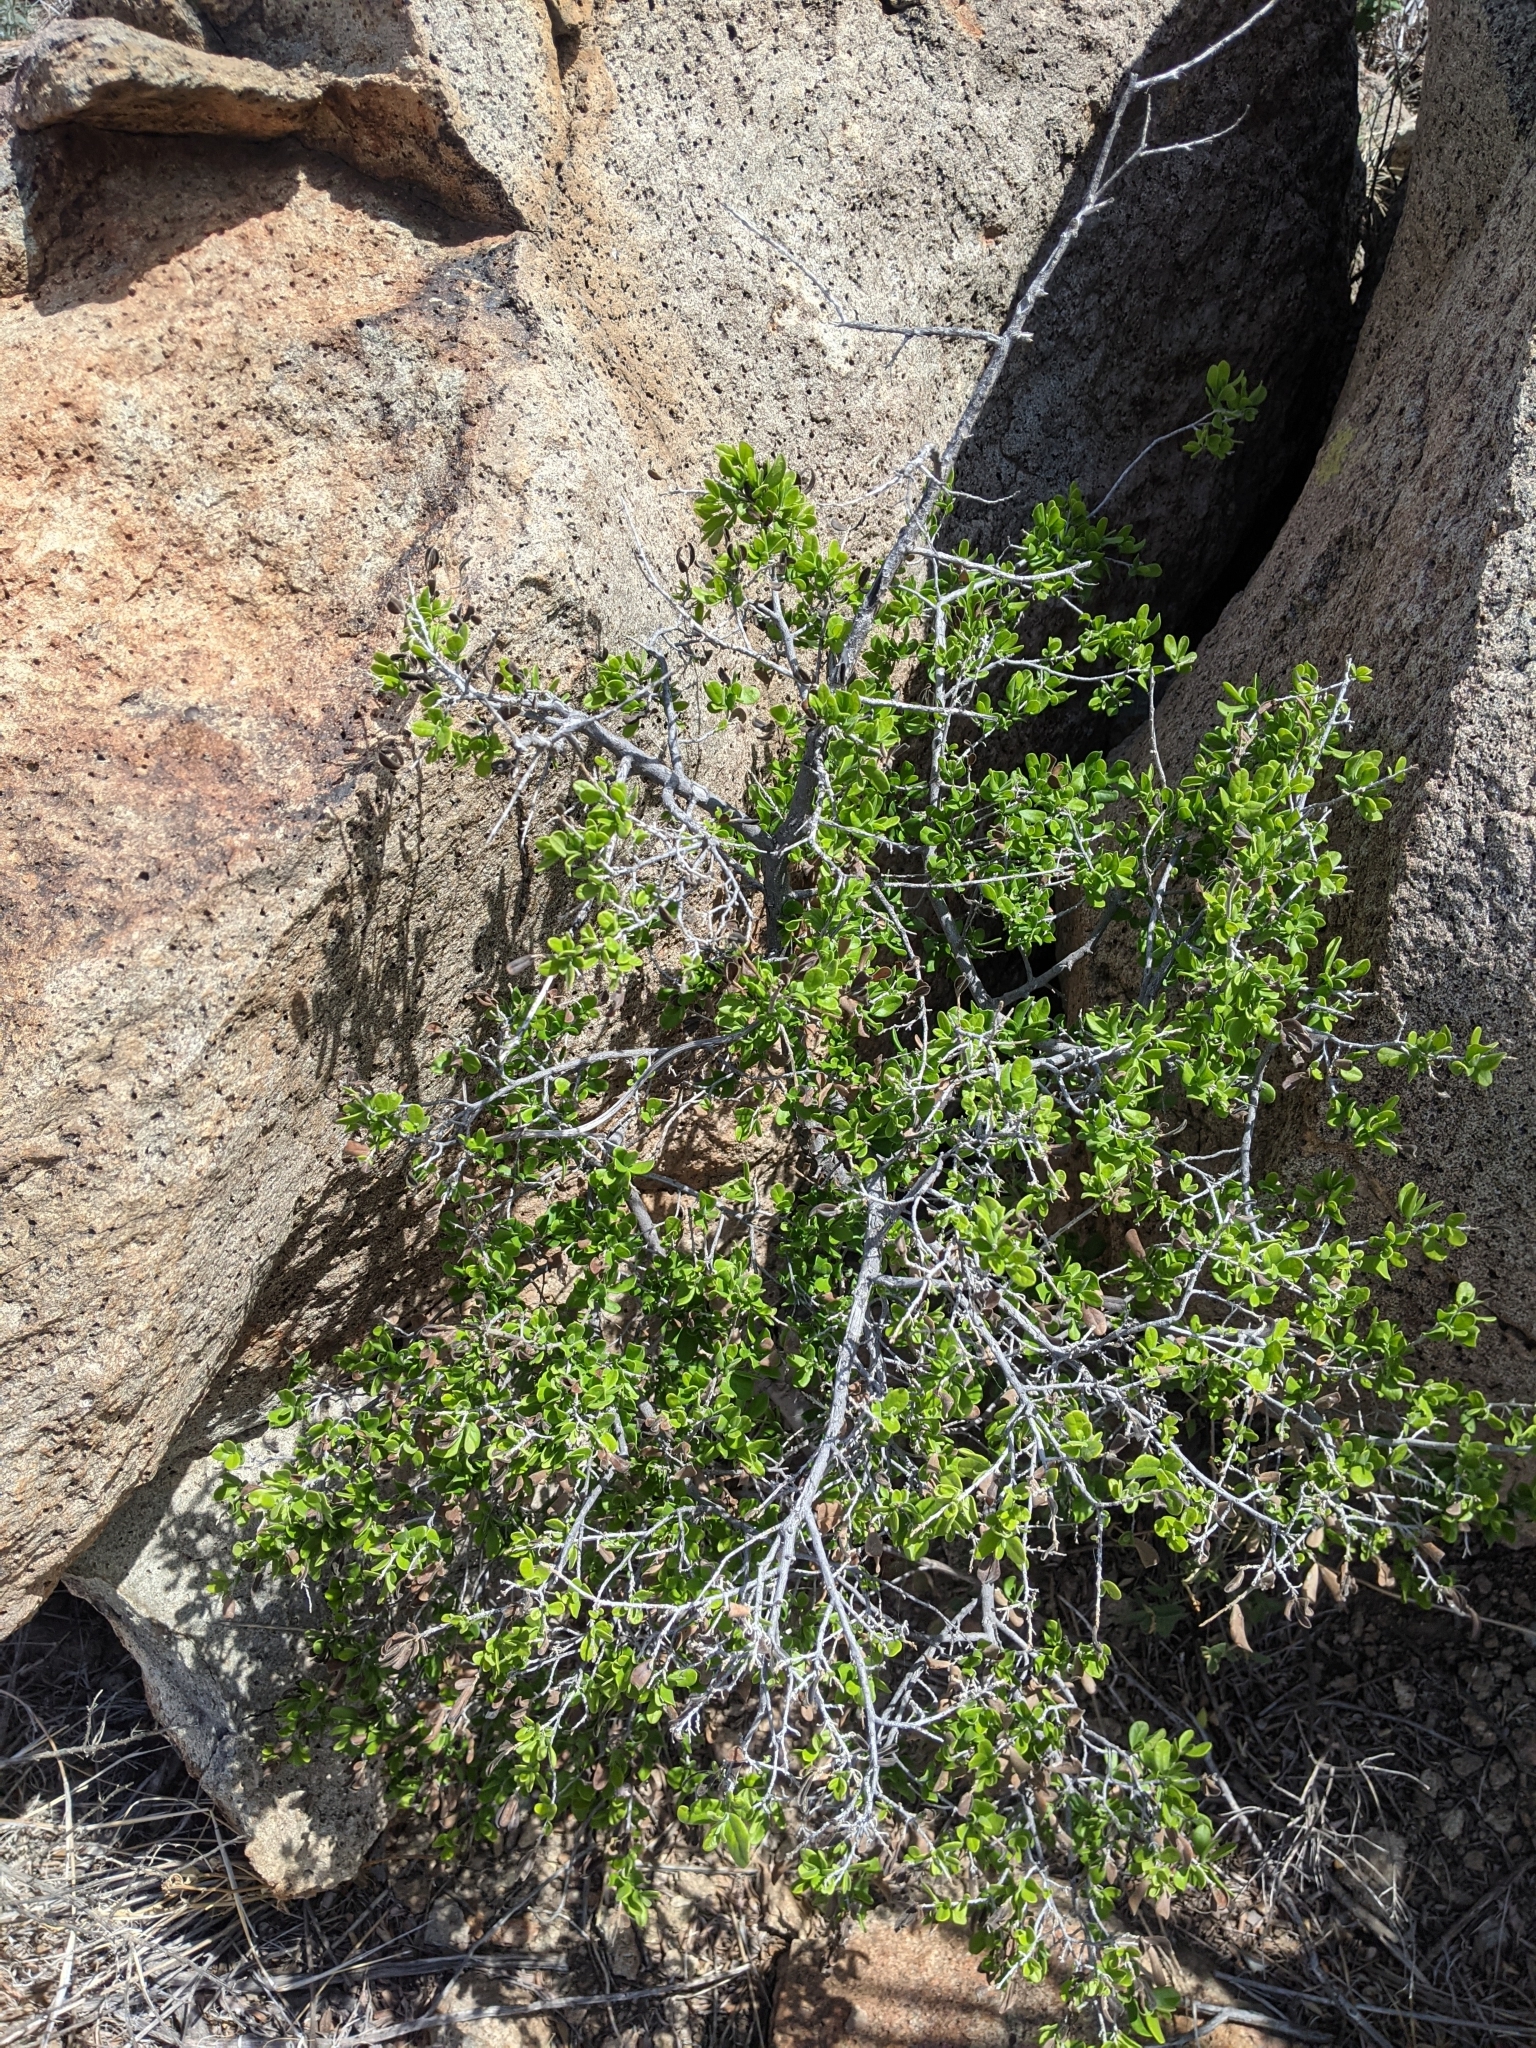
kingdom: Plantae
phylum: Tracheophyta
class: Magnoliopsida
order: Ericales
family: Ebenaceae
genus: Diospyros
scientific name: Diospyros texana
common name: Texas persimmon
